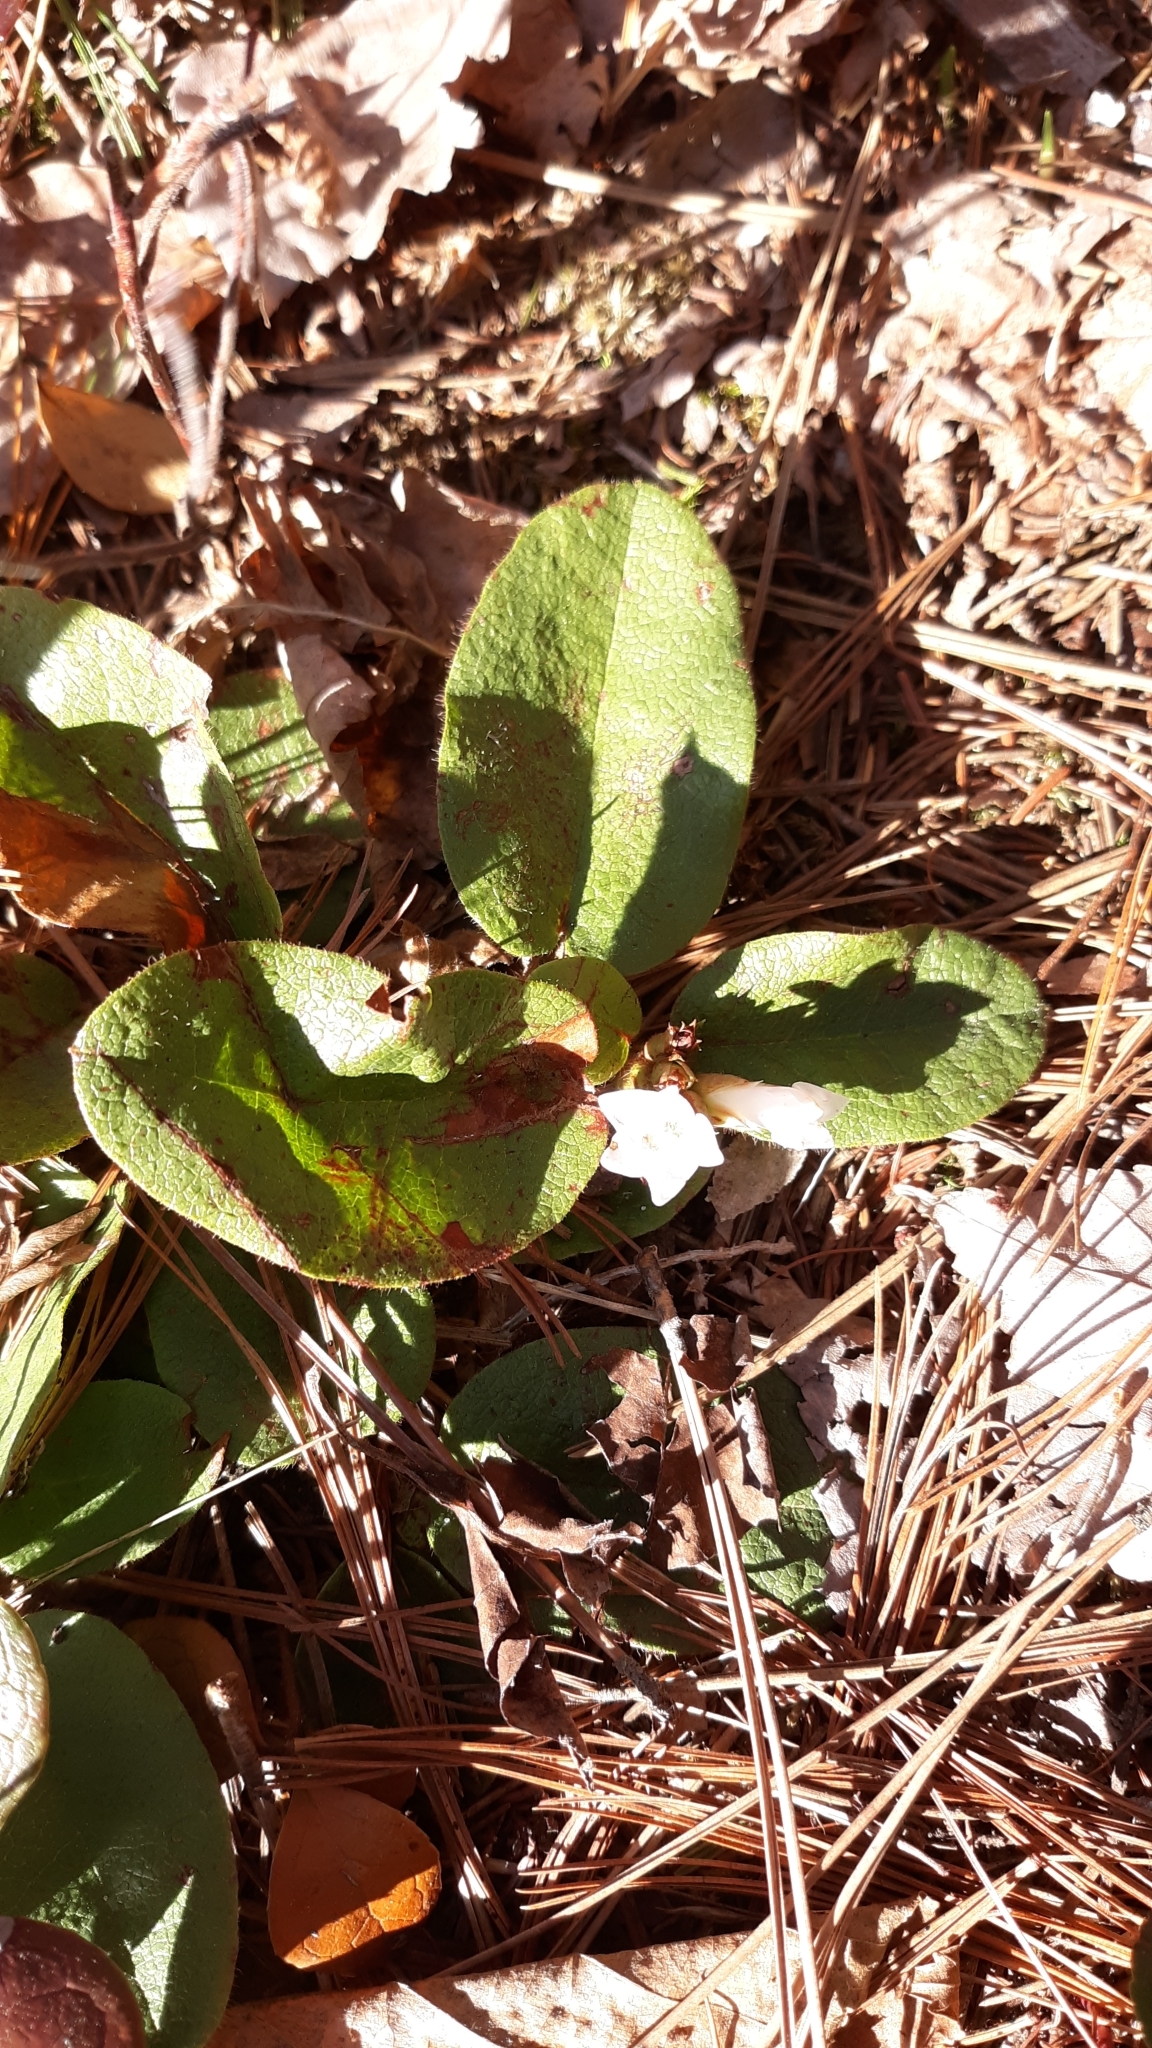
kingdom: Plantae
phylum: Tracheophyta
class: Magnoliopsida
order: Ericales
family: Ericaceae
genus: Epigaea
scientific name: Epigaea repens
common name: Gravelroot
